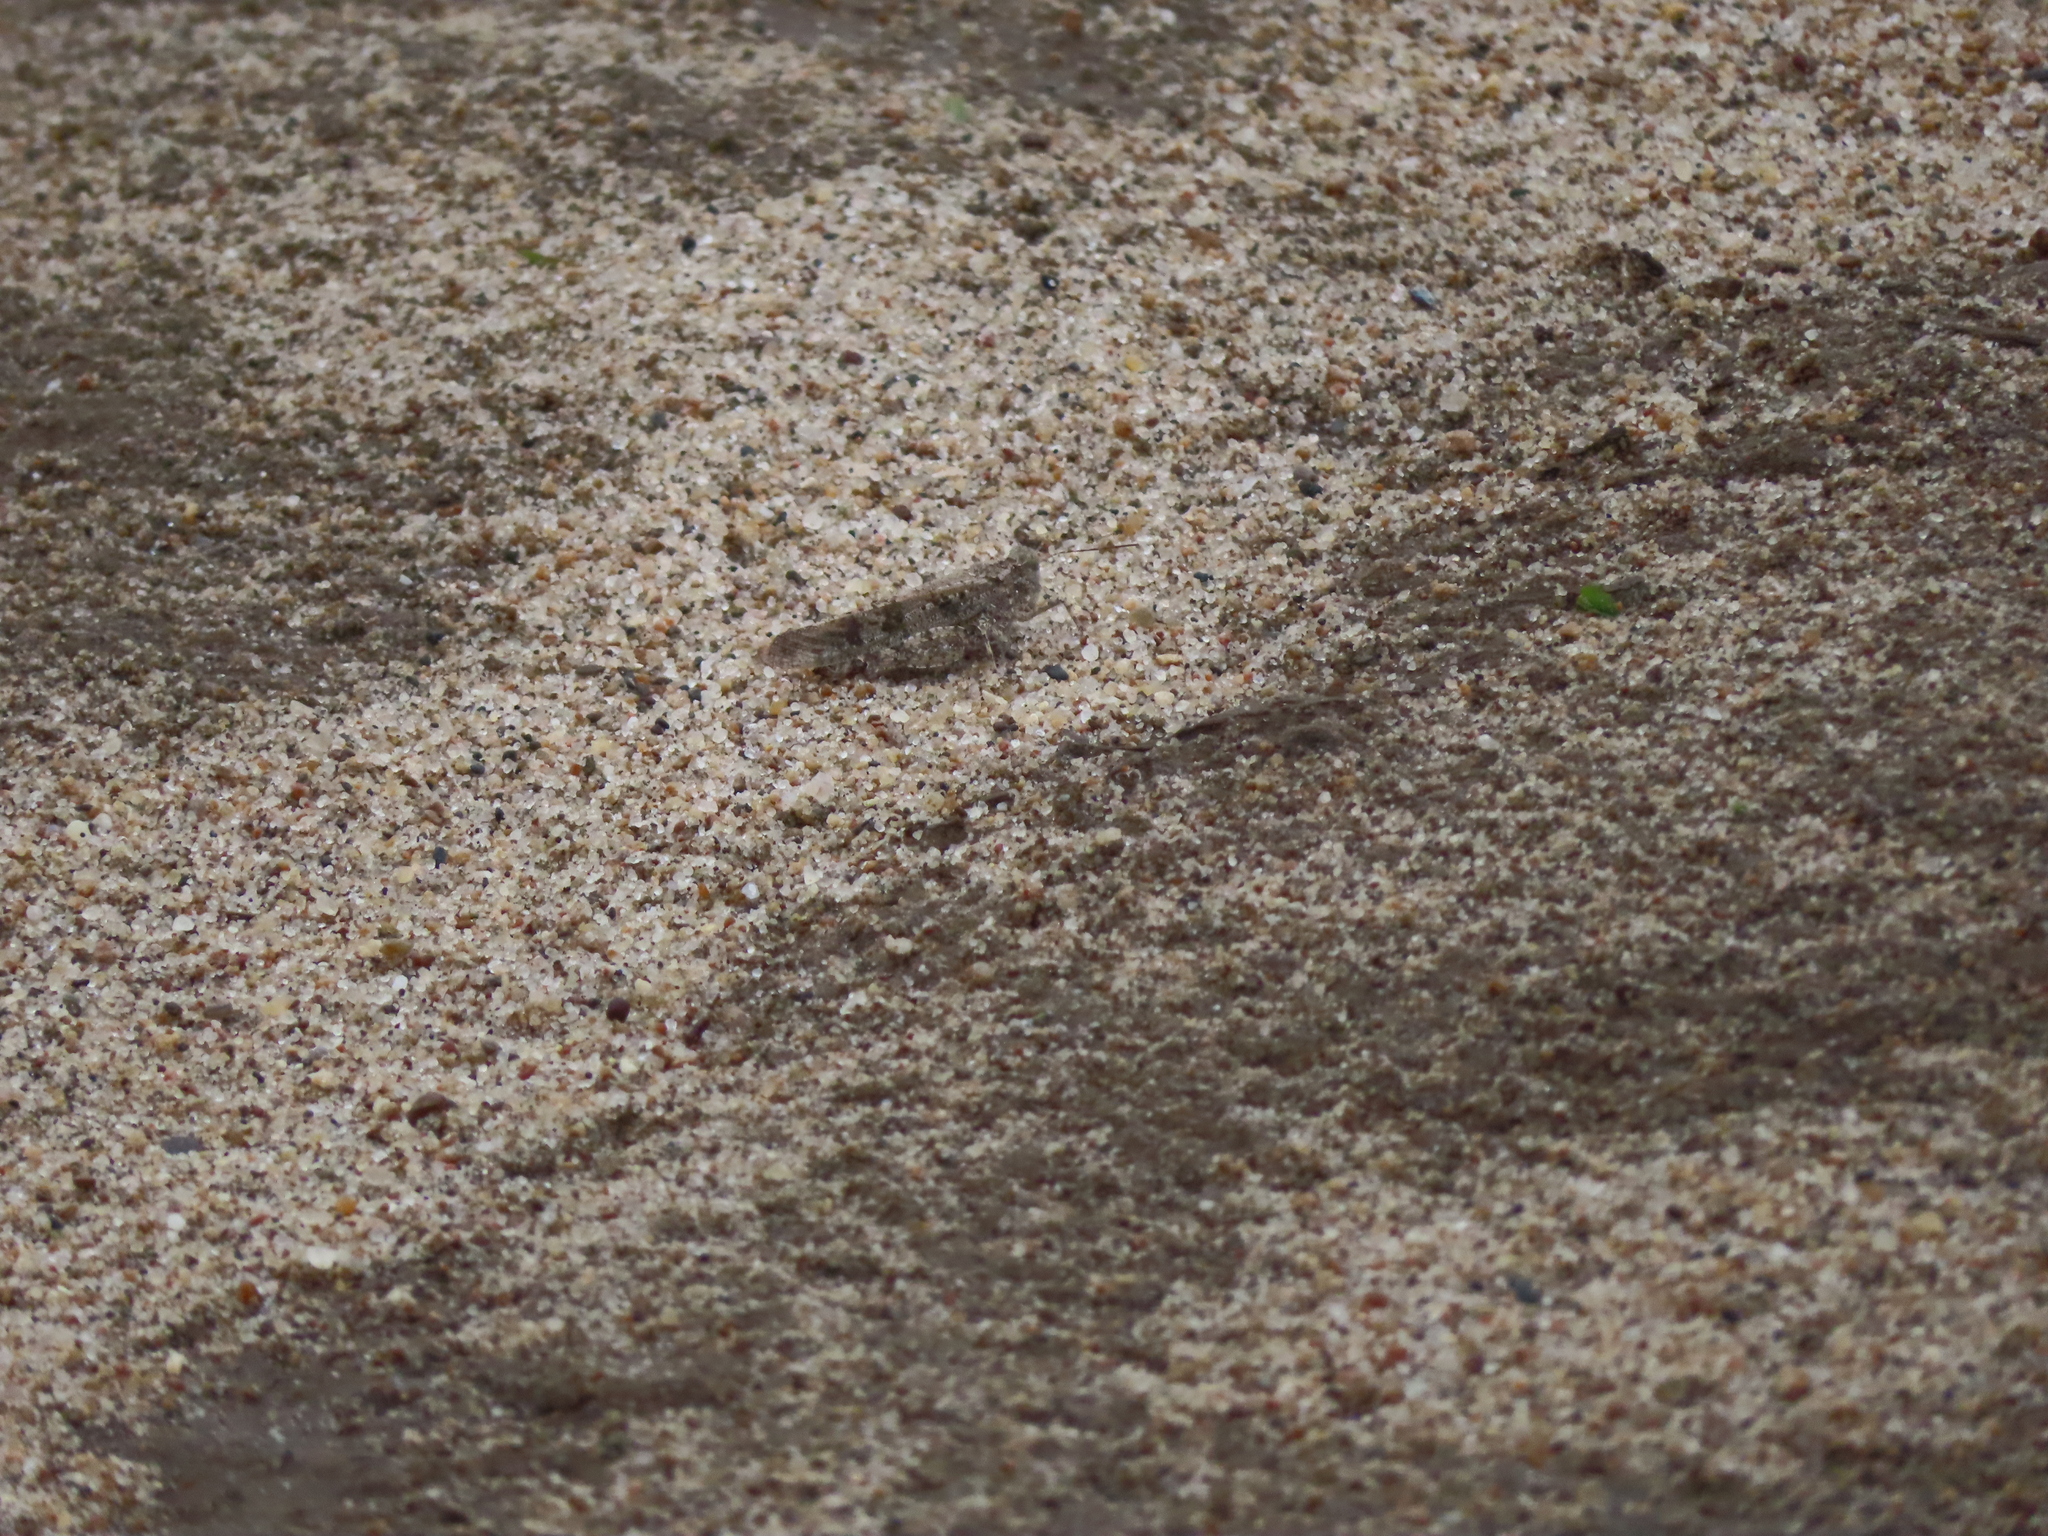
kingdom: Animalia
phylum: Arthropoda
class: Insecta
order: Orthoptera
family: Acrididae
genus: Trimerotropis
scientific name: Trimerotropis maritima
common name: Seaside locust
